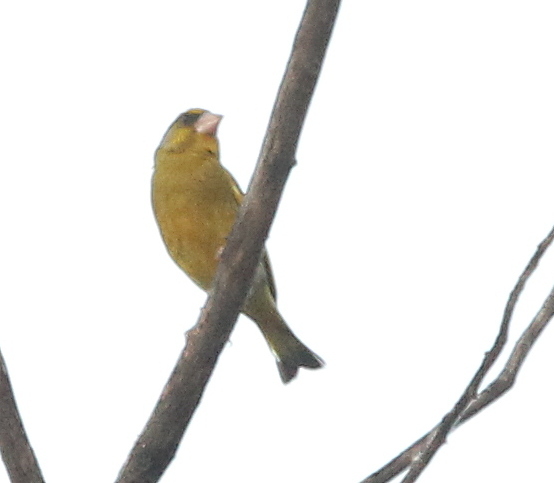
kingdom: Plantae
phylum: Tracheophyta
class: Liliopsida
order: Poales
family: Poaceae
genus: Chloris
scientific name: Chloris chloris
